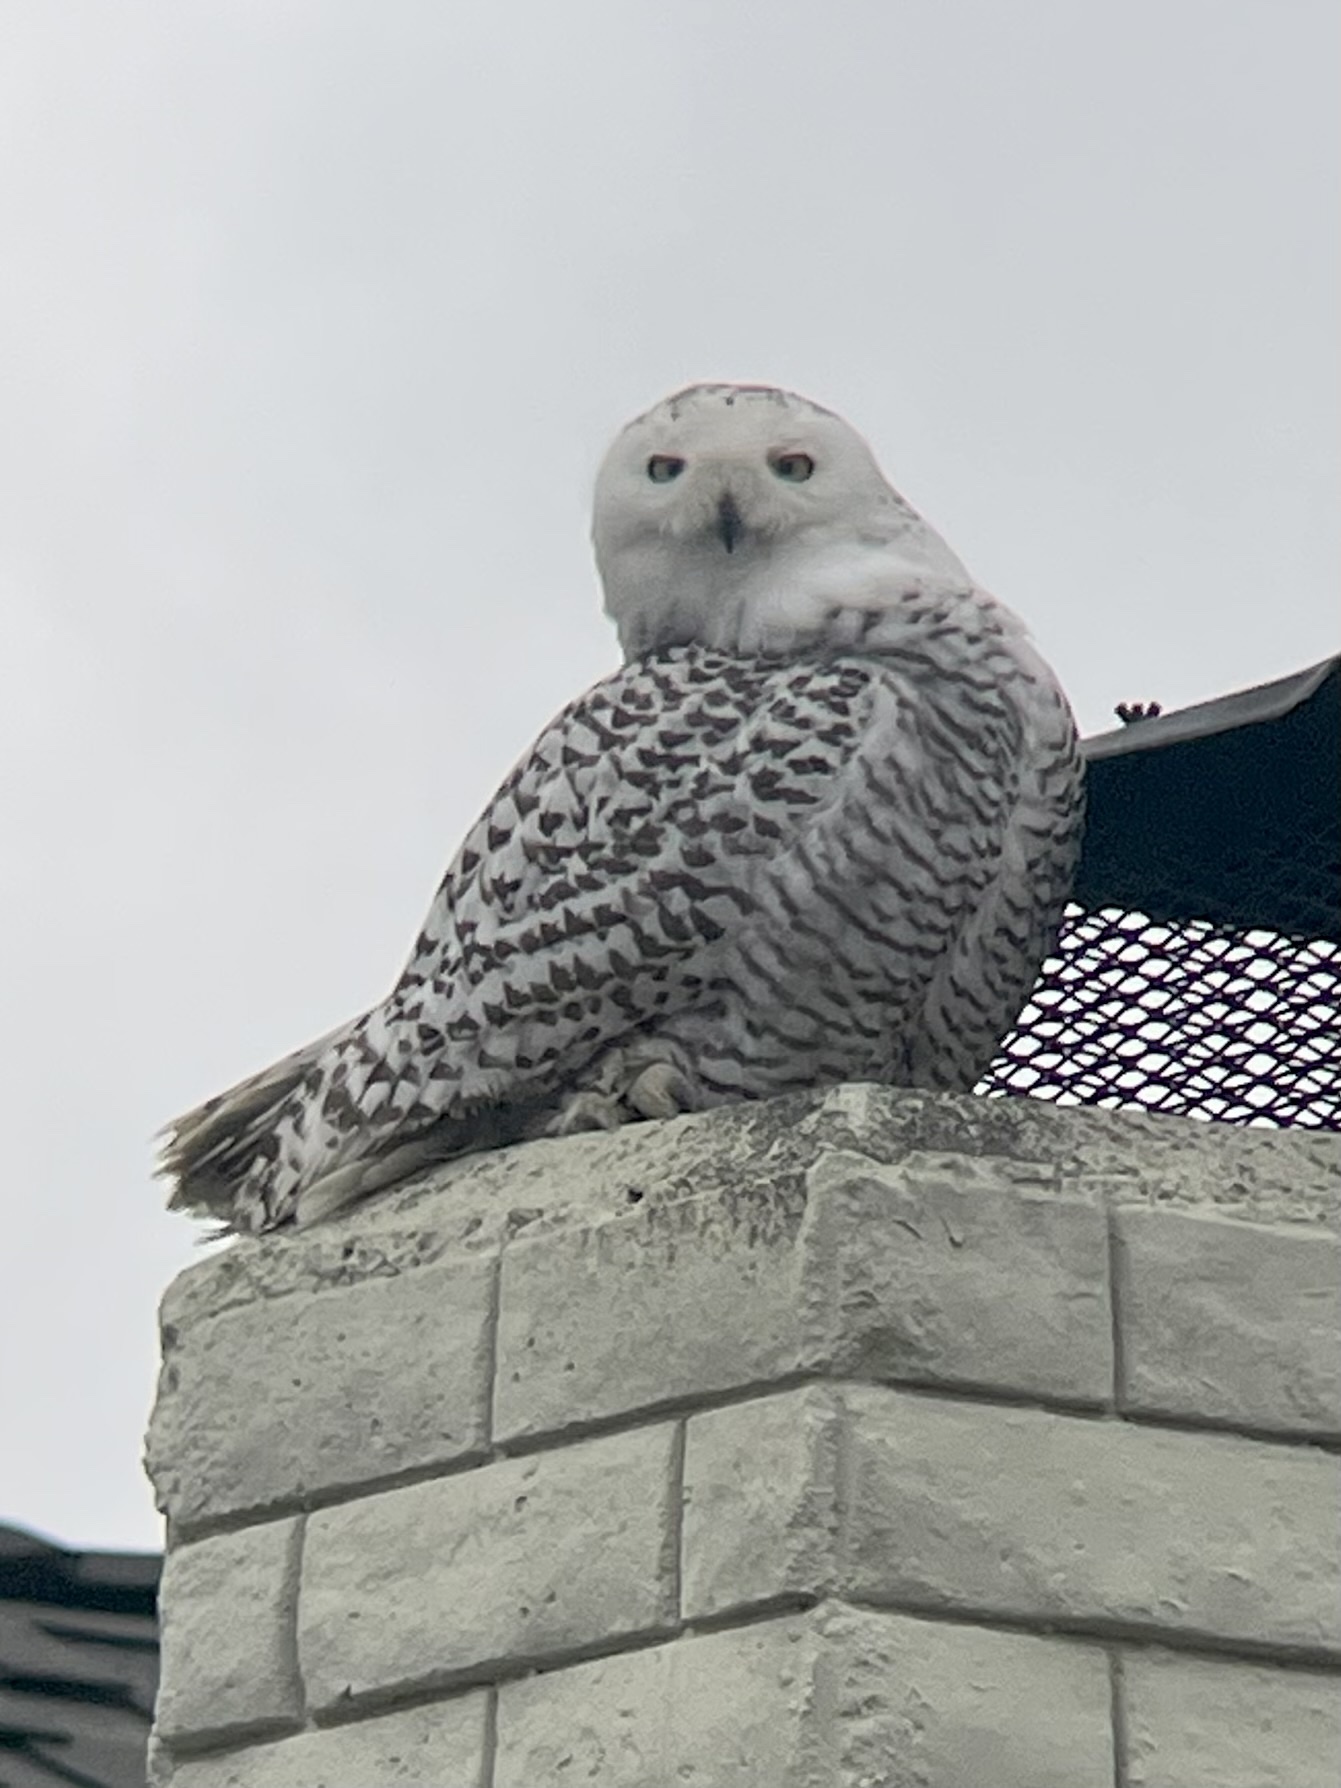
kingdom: Animalia
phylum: Chordata
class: Aves
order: Strigiformes
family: Strigidae
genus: Bubo
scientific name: Bubo scandiacus
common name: Snowy owl
